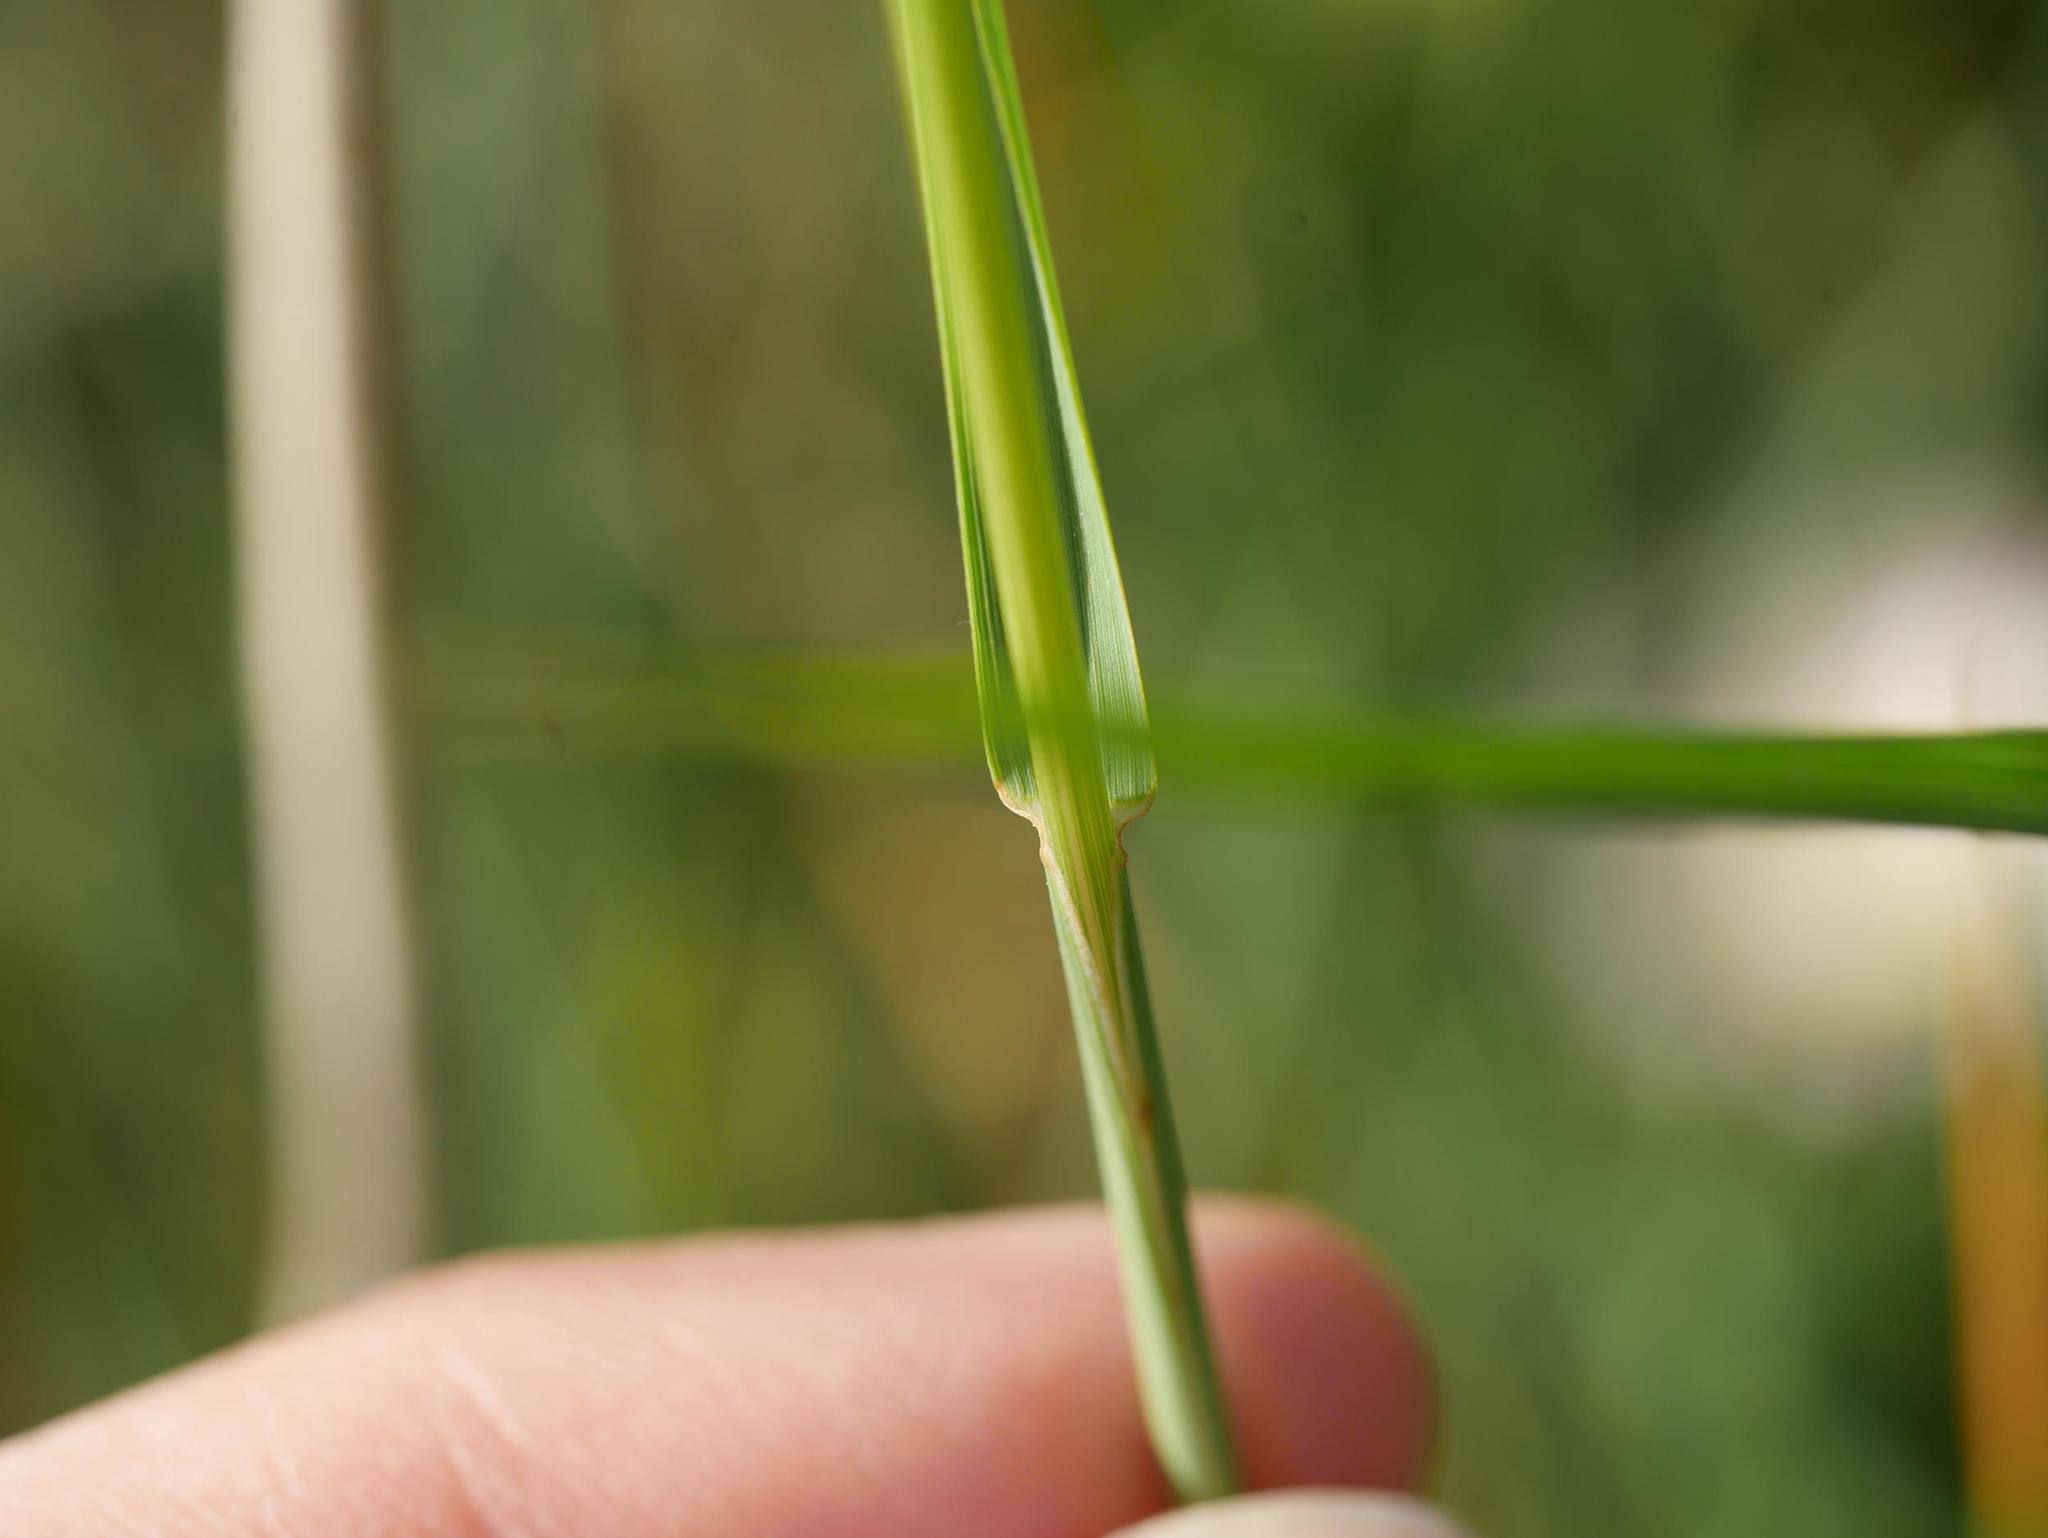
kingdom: Plantae
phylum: Tracheophyta
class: Liliopsida
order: Poales
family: Poaceae
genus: Arrhenatherum
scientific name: Arrhenatherum elatius
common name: Tall oatgrass
